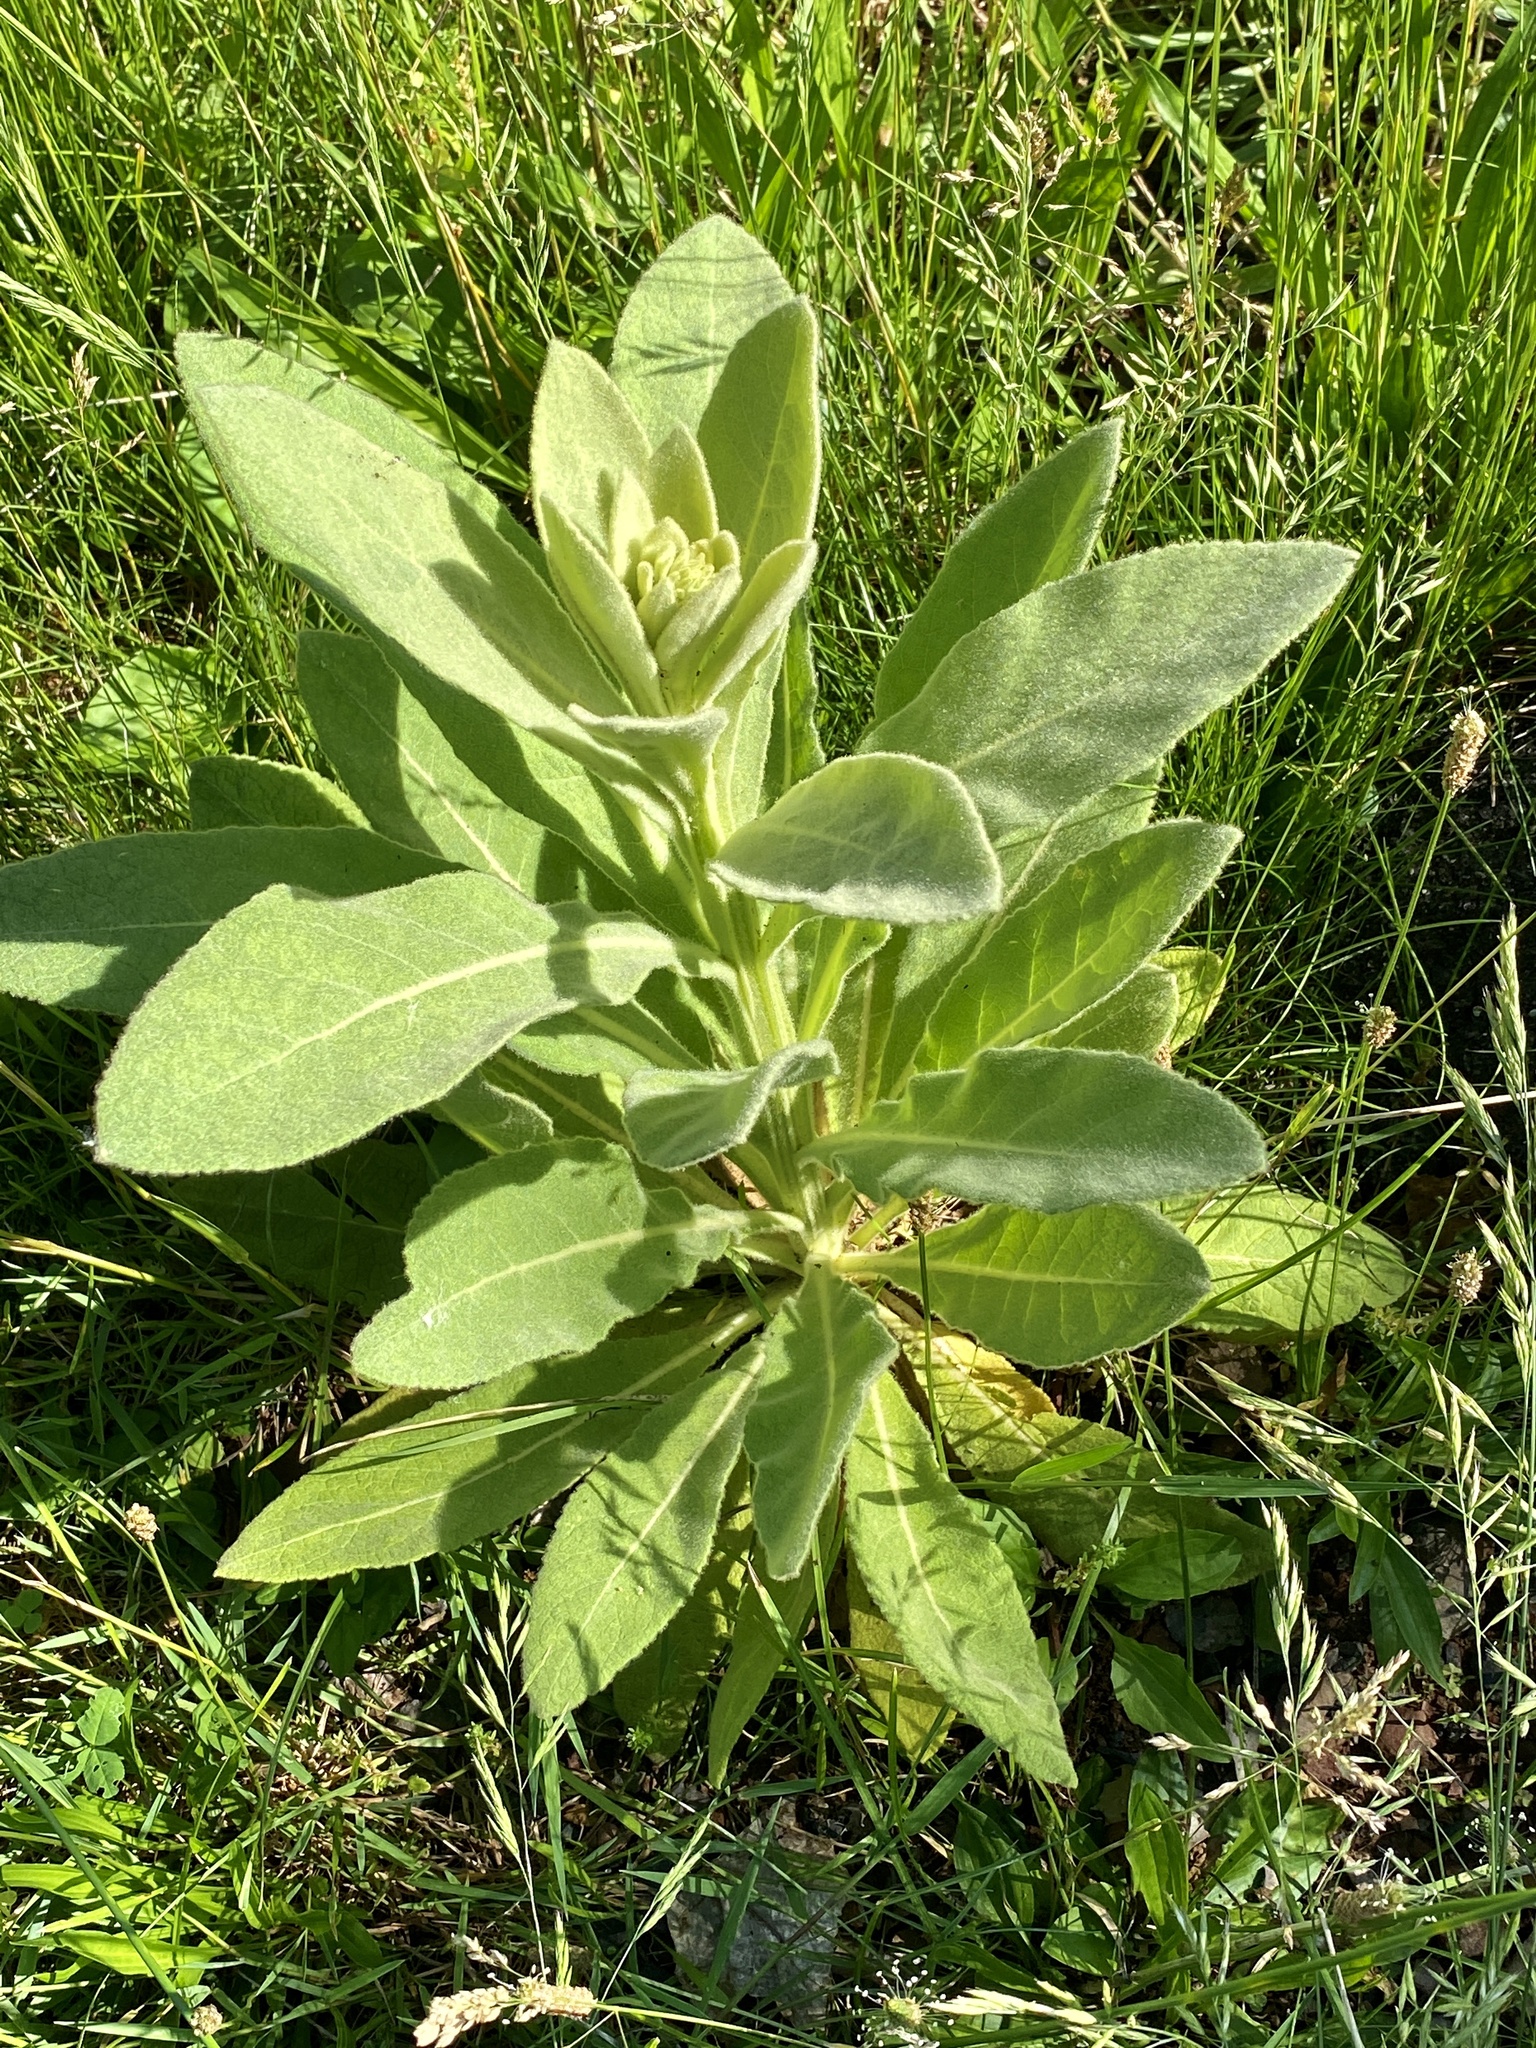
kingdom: Plantae
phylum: Tracheophyta
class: Magnoliopsida
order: Lamiales
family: Scrophulariaceae
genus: Verbascum
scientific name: Verbascum thapsus
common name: Common mullein
